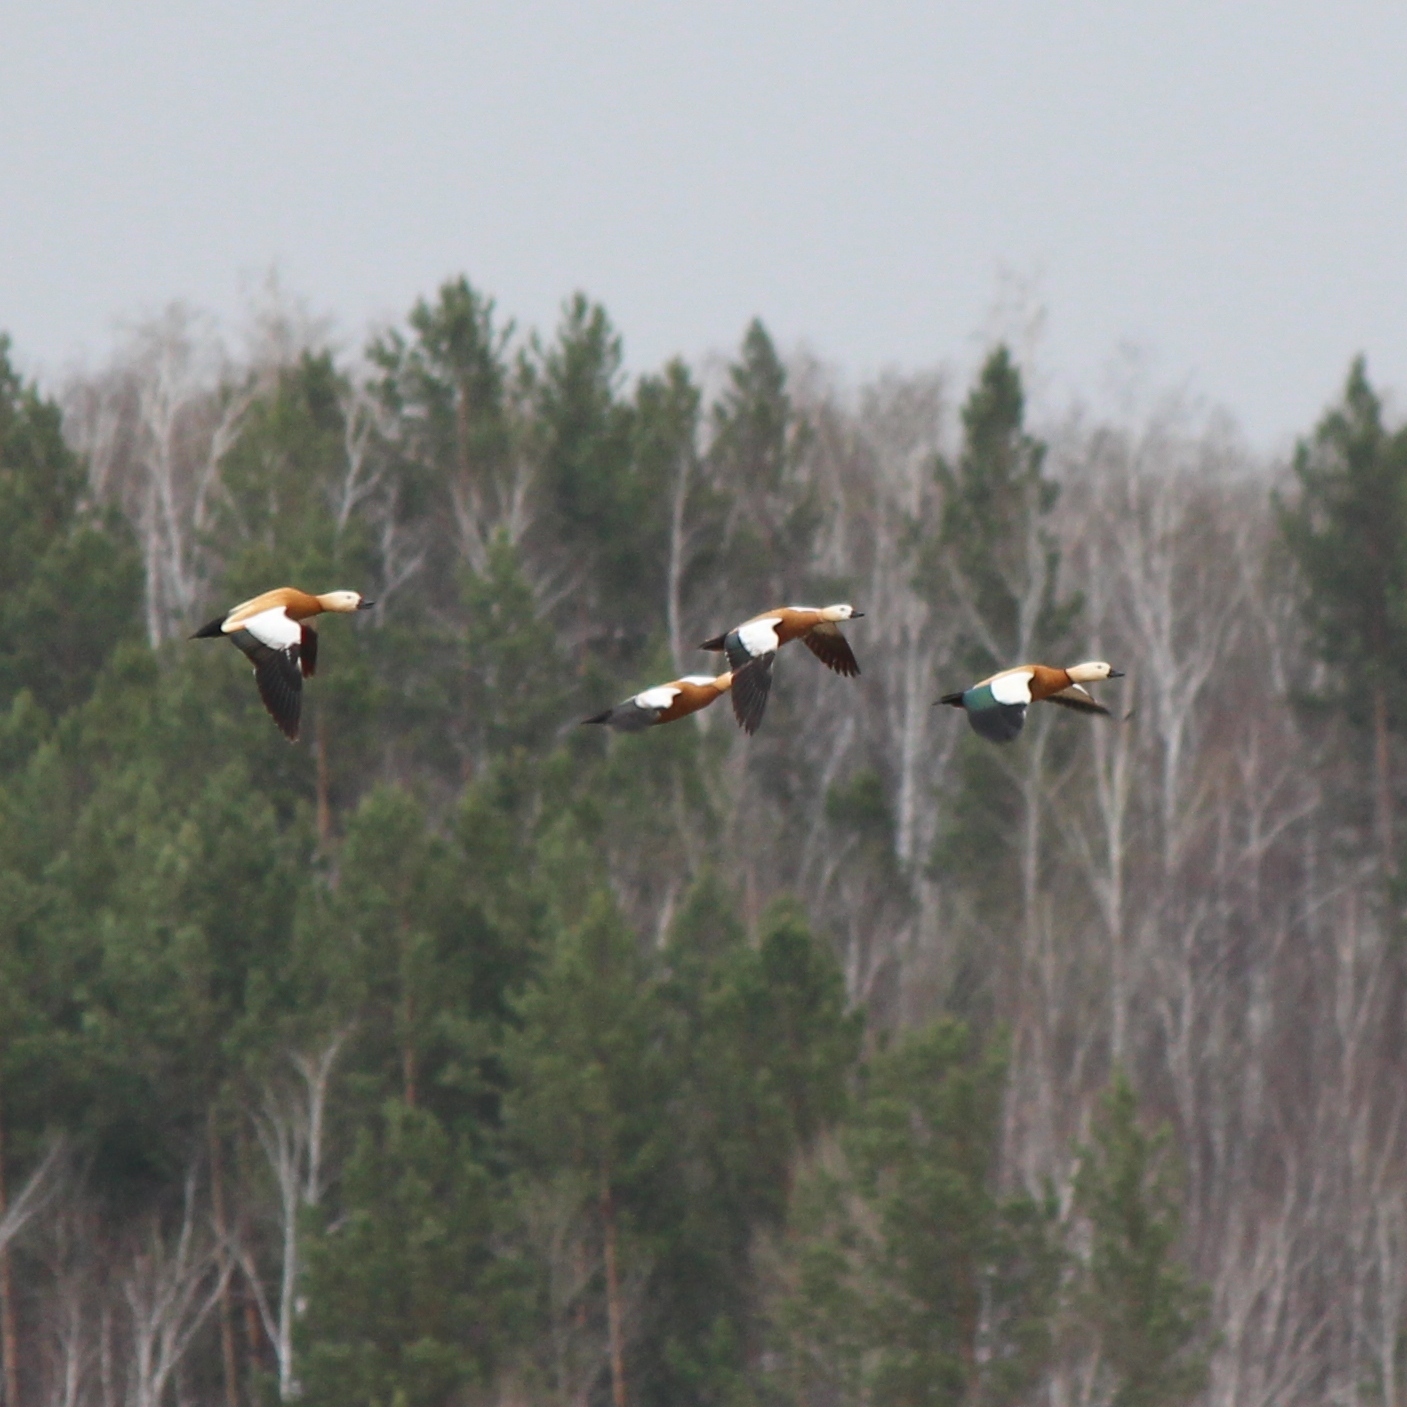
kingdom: Animalia
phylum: Chordata
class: Aves
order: Anseriformes
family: Anatidae
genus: Tadorna
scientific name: Tadorna ferruginea
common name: Ruddy shelduck
